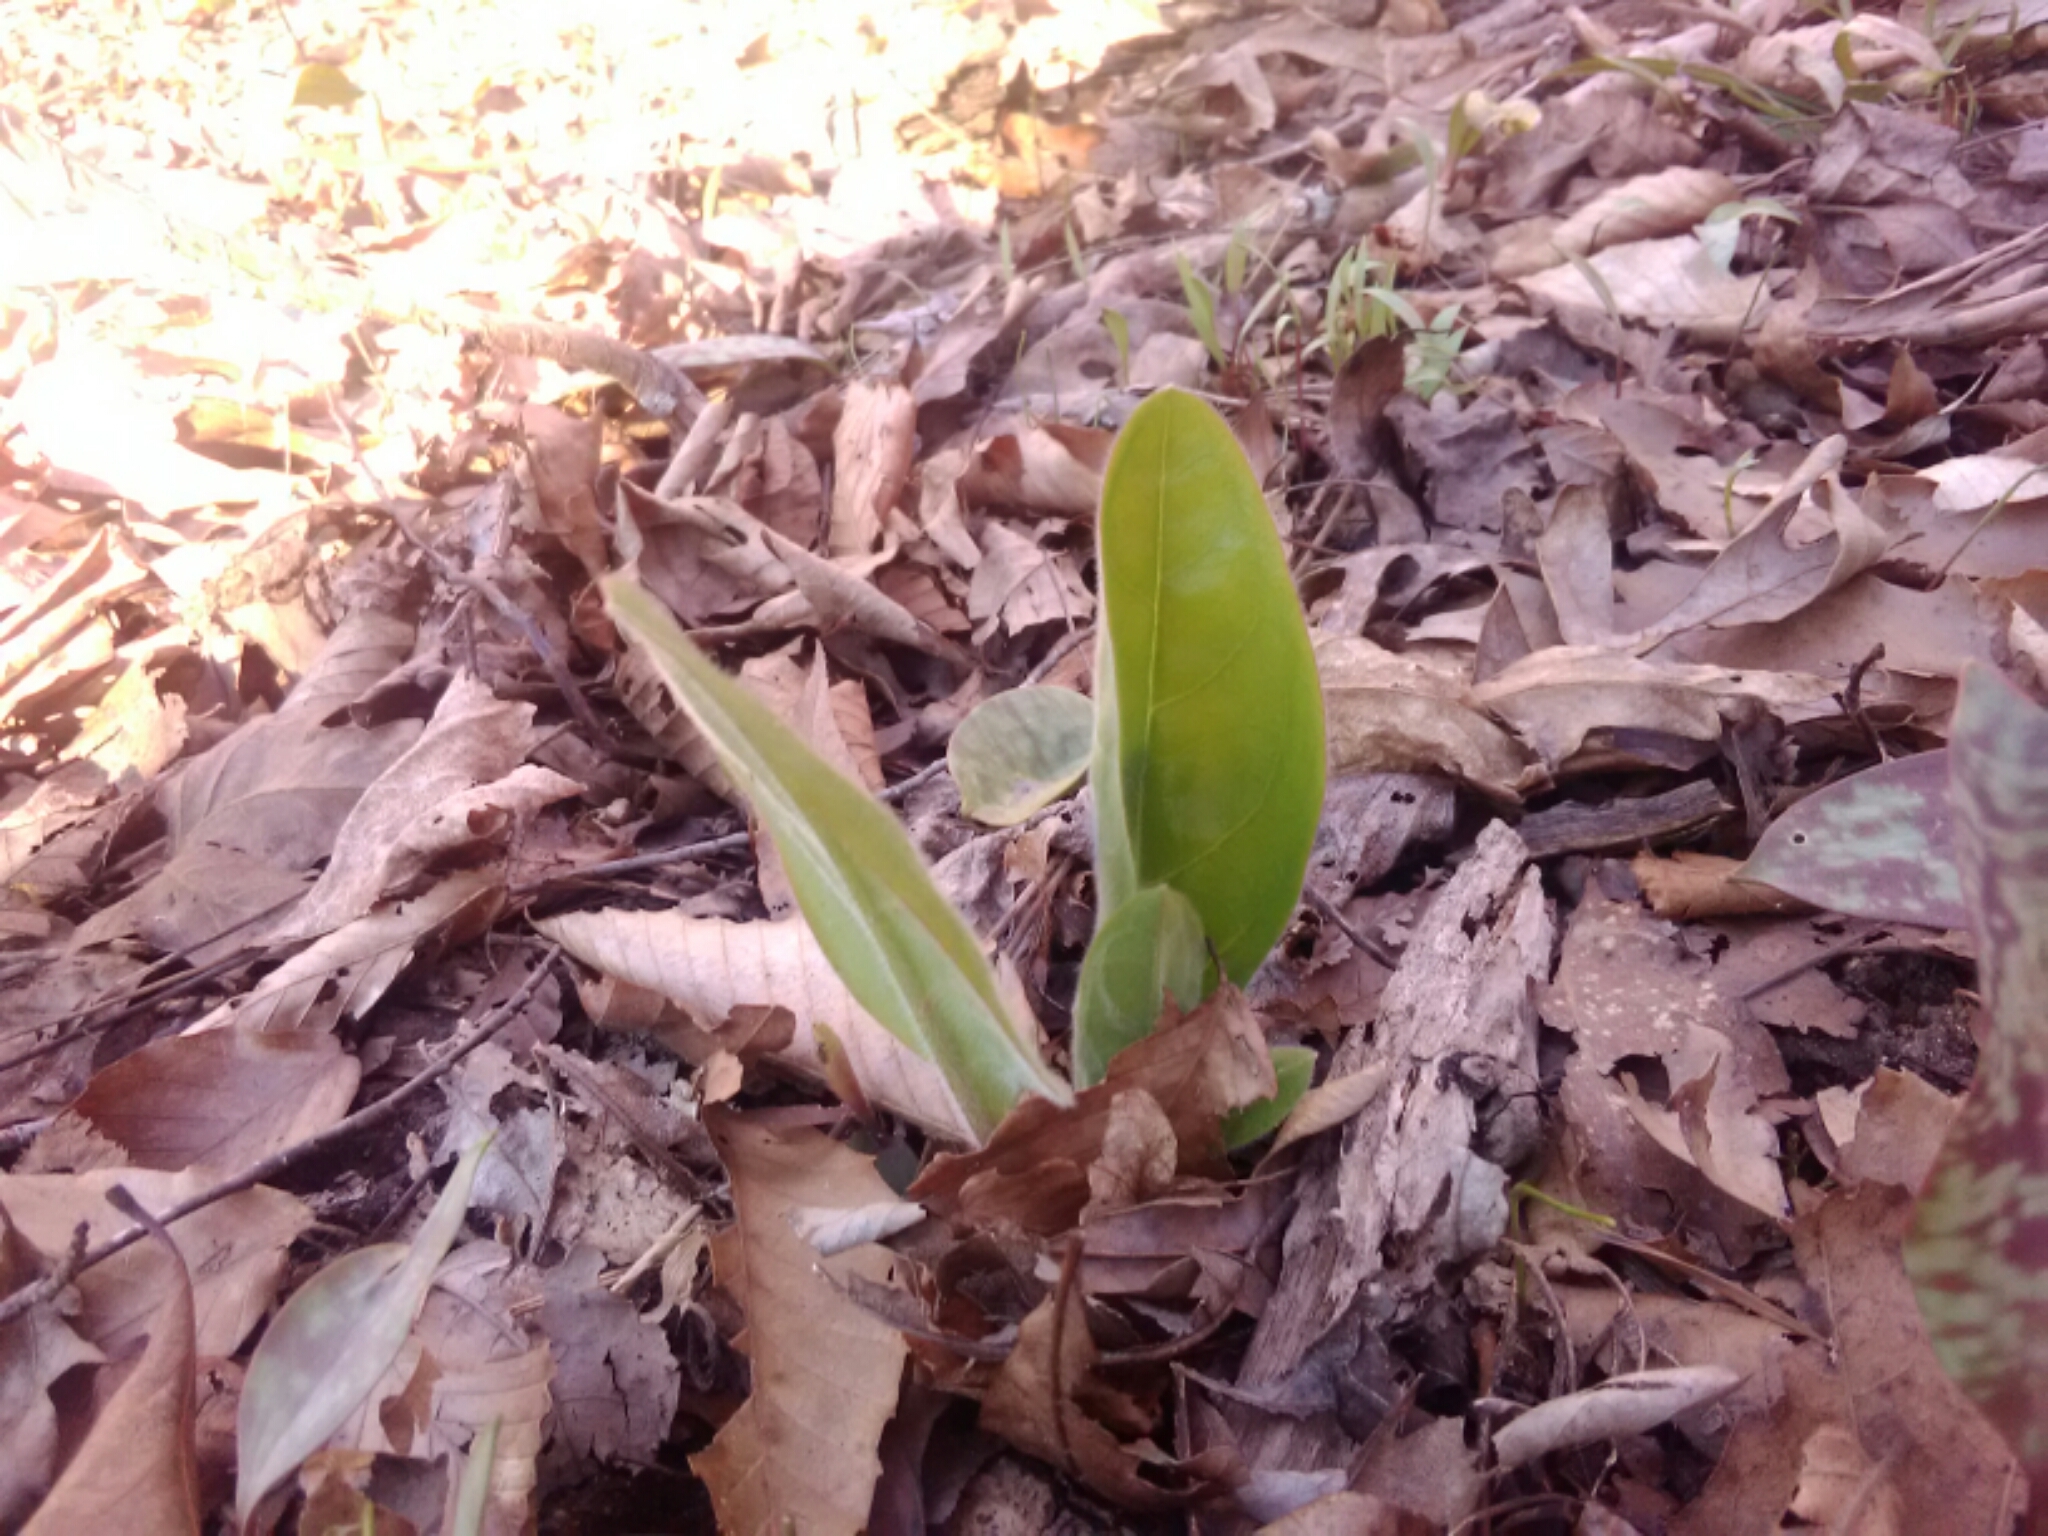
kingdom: Plantae
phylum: Tracheophyta
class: Magnoliopsida
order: Boraginales
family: Boraginaceae
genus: Andersonglossum
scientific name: Andersonglossum virginianum
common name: Wild comfrey
